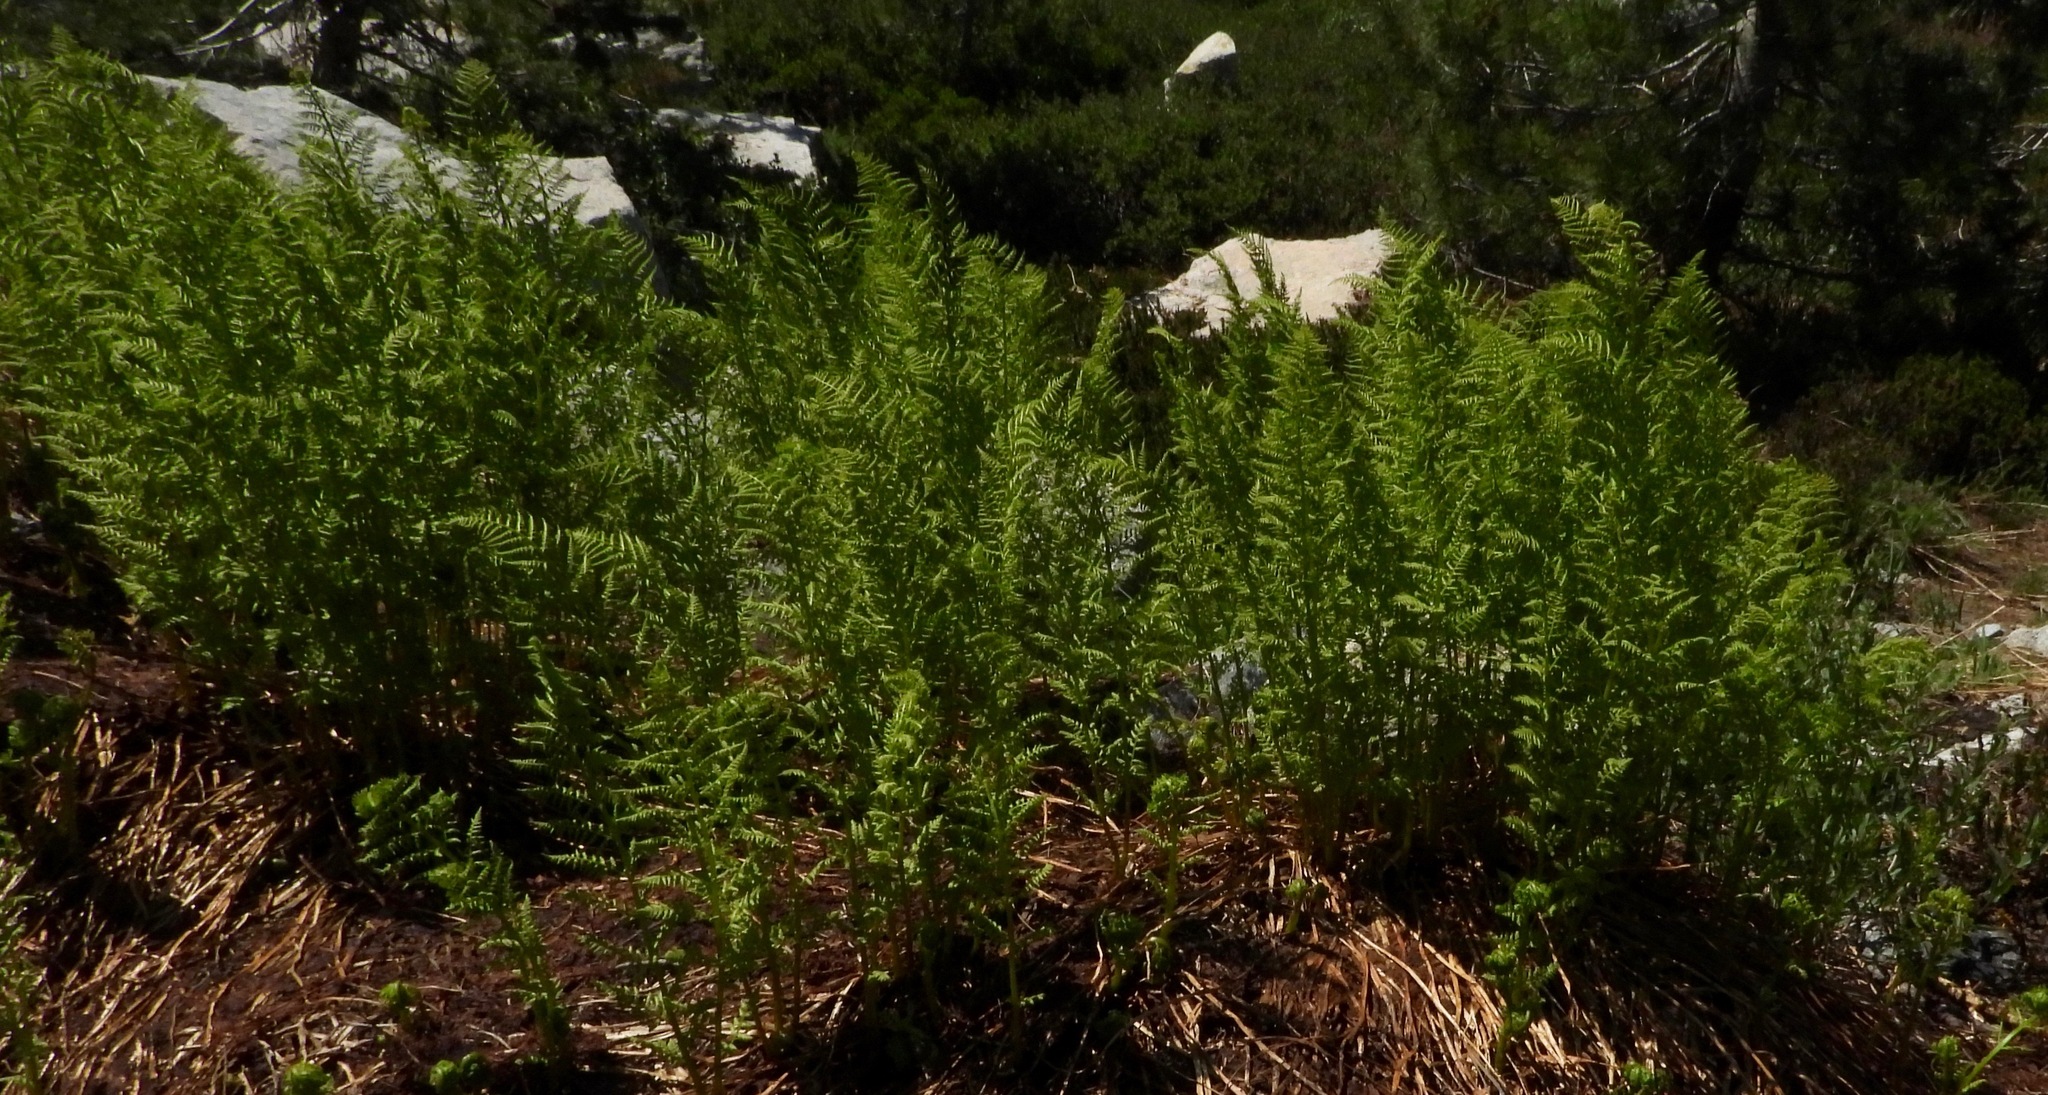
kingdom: Plantae
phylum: Tracheophyta
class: Polypodiopsida
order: Polypodiales
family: Athyriaceae
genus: Athyrium
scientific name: Athyrium americanum
